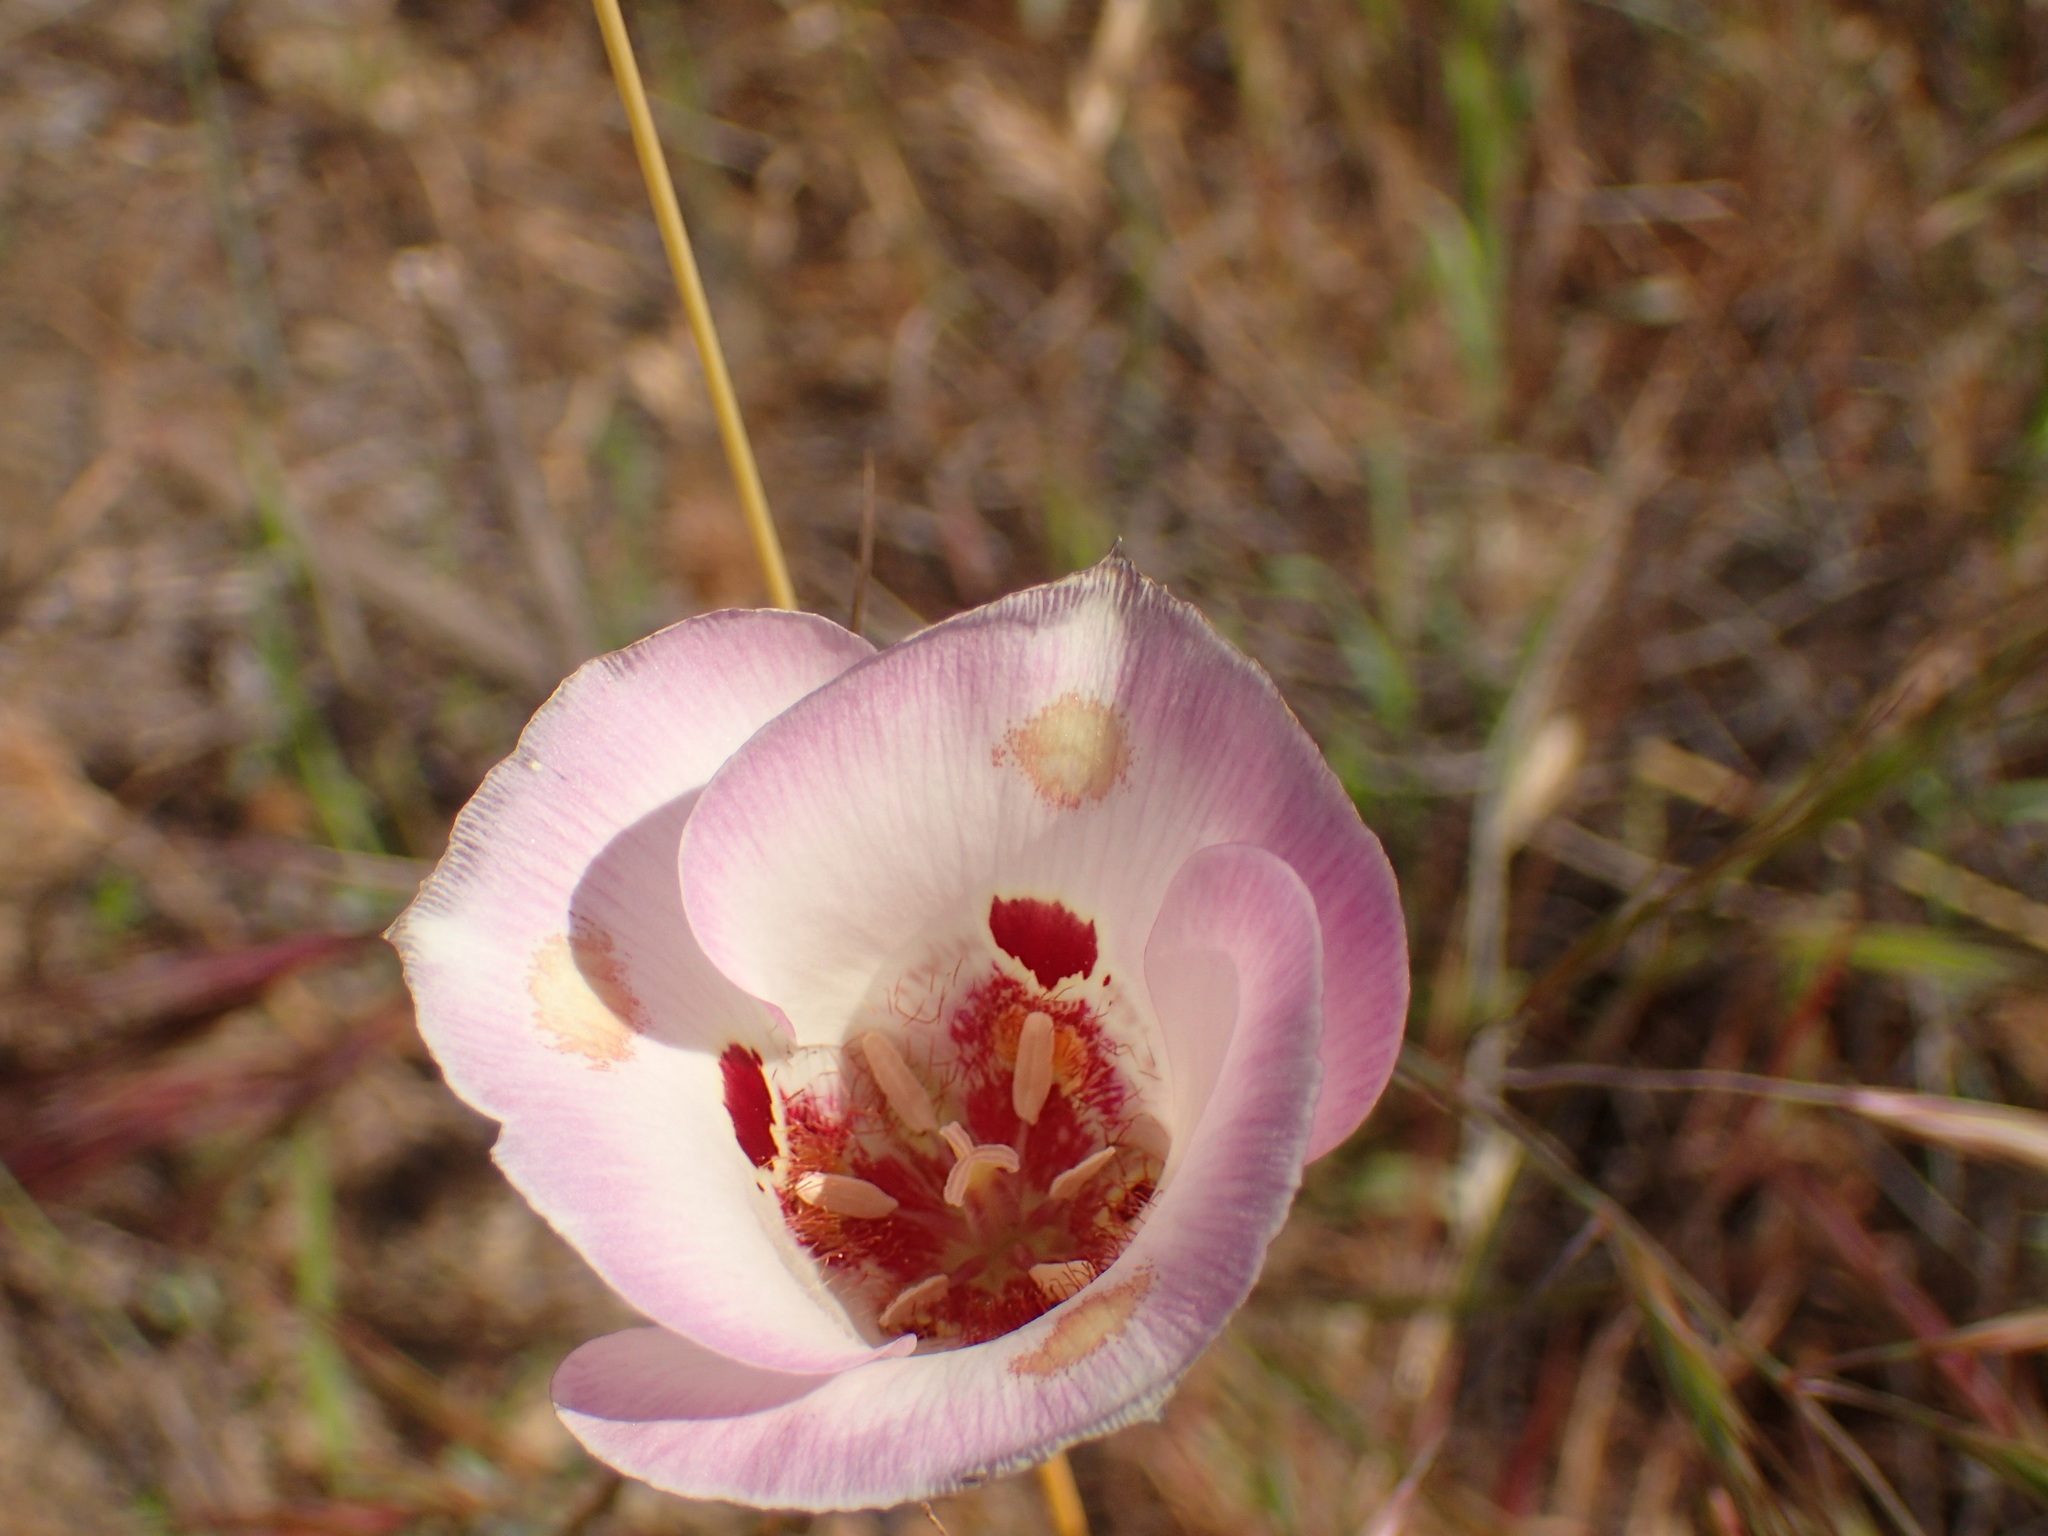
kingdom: Plantae
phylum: Tracheophyta
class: Liliopsida
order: Liliales
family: Liliaceae
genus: Calochortus
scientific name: Calochortus venustus
